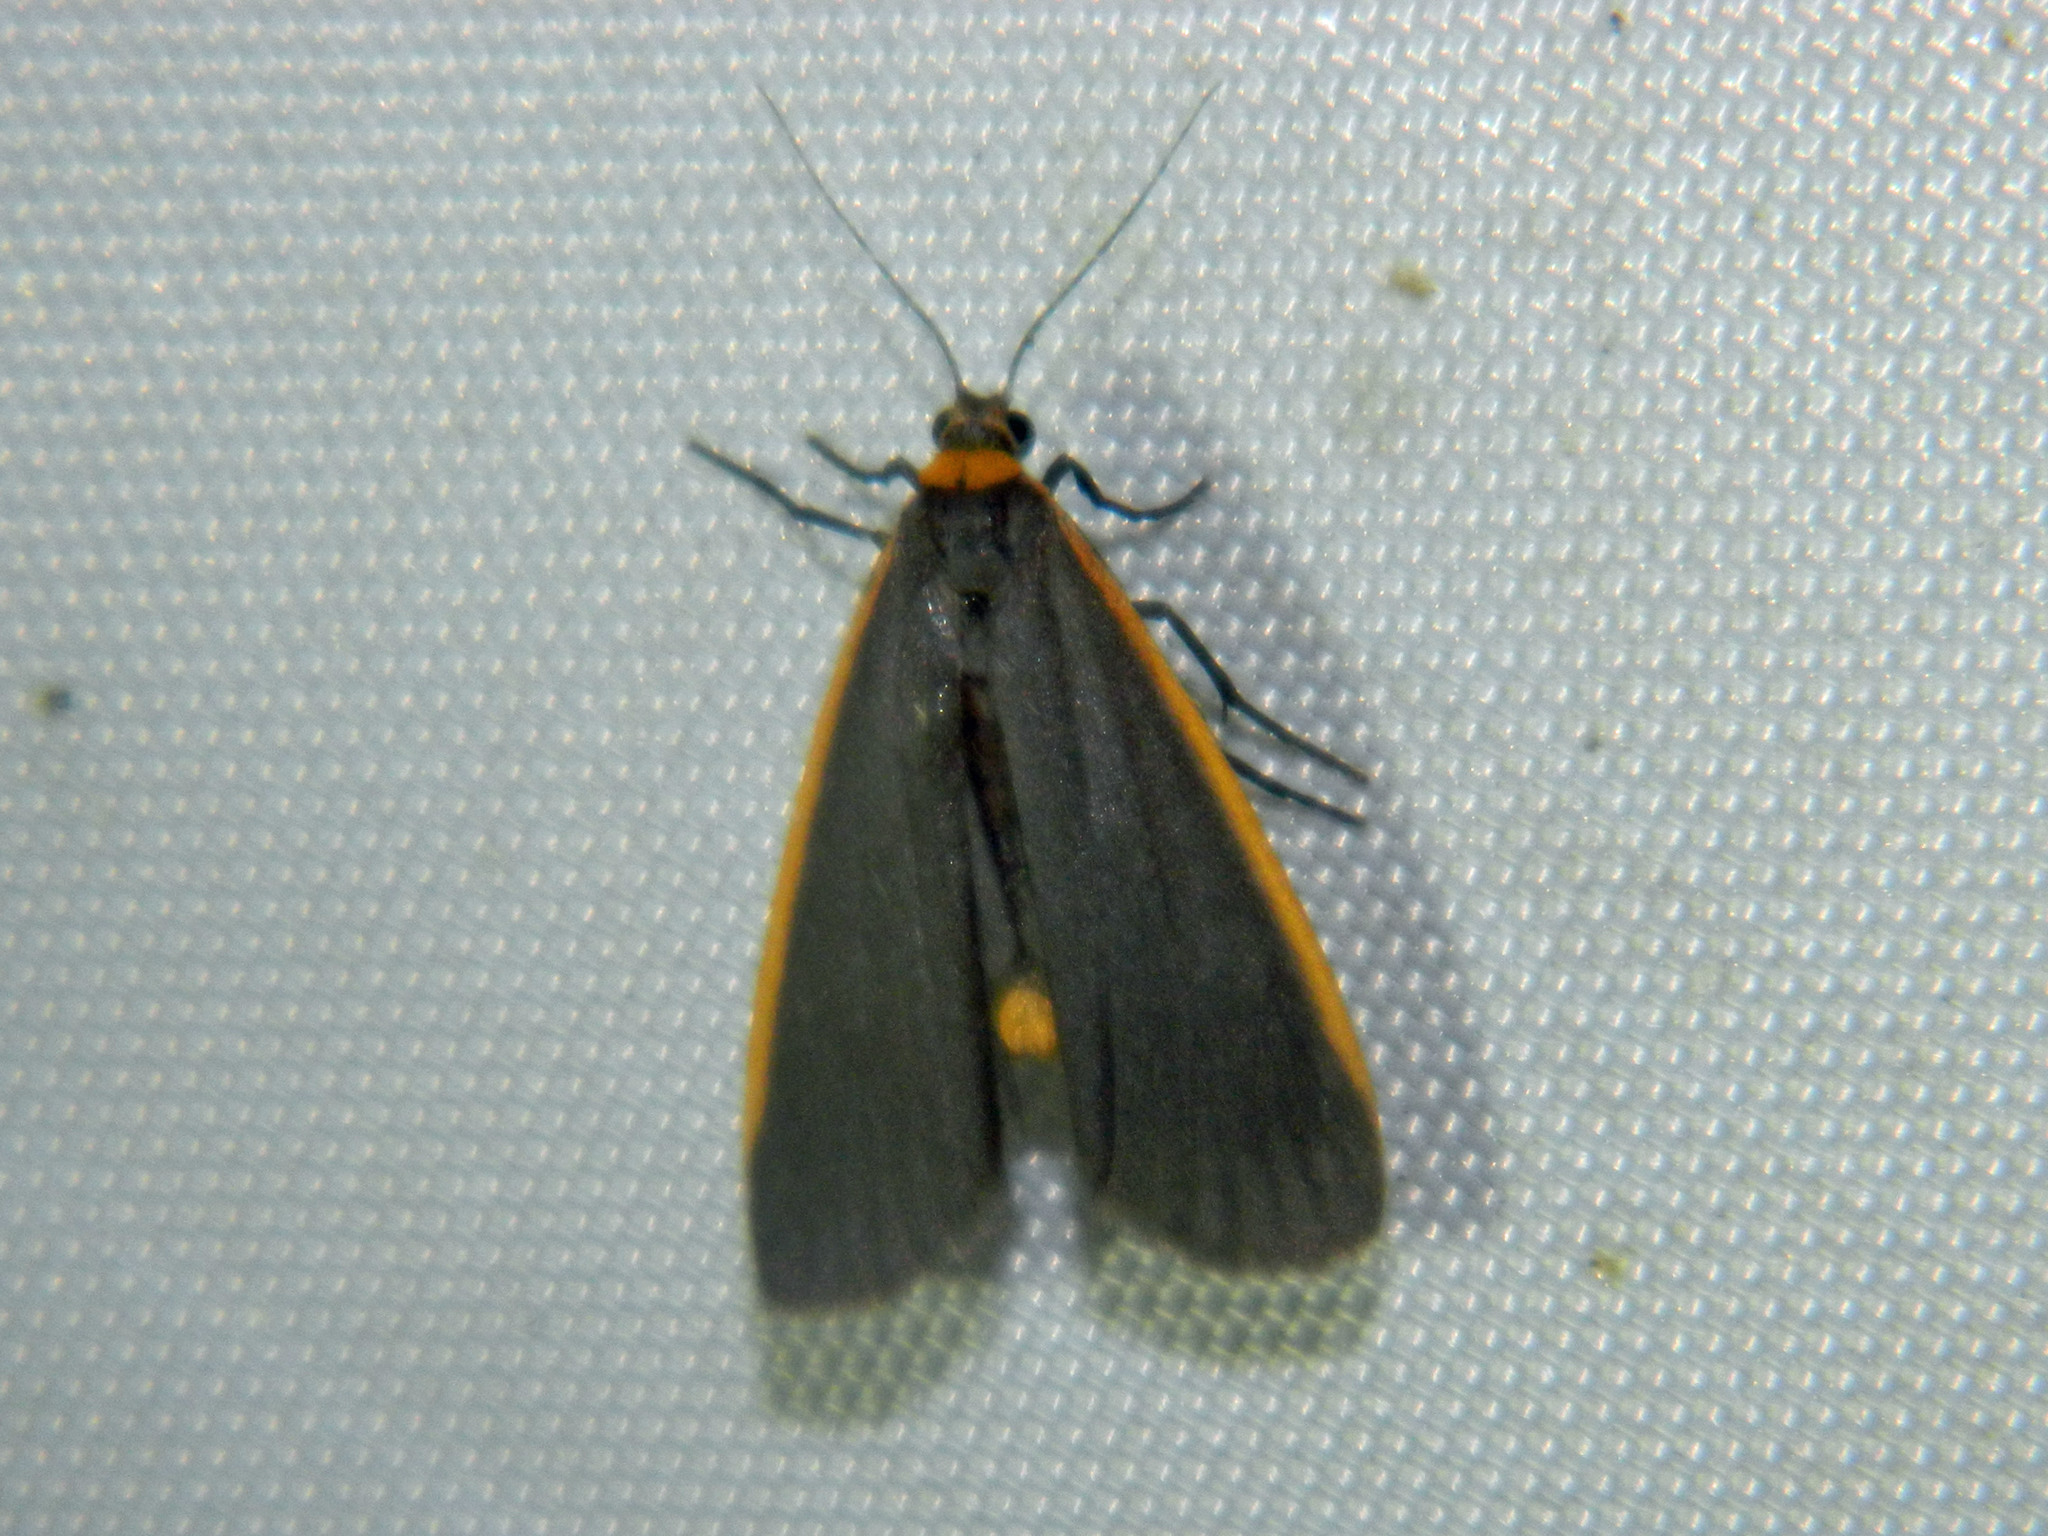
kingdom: Animalia
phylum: Arthropoda
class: Insecta
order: Lepidoptera
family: Erebidae
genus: Manulea
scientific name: Manulea bicolor
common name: Bicolored moth
